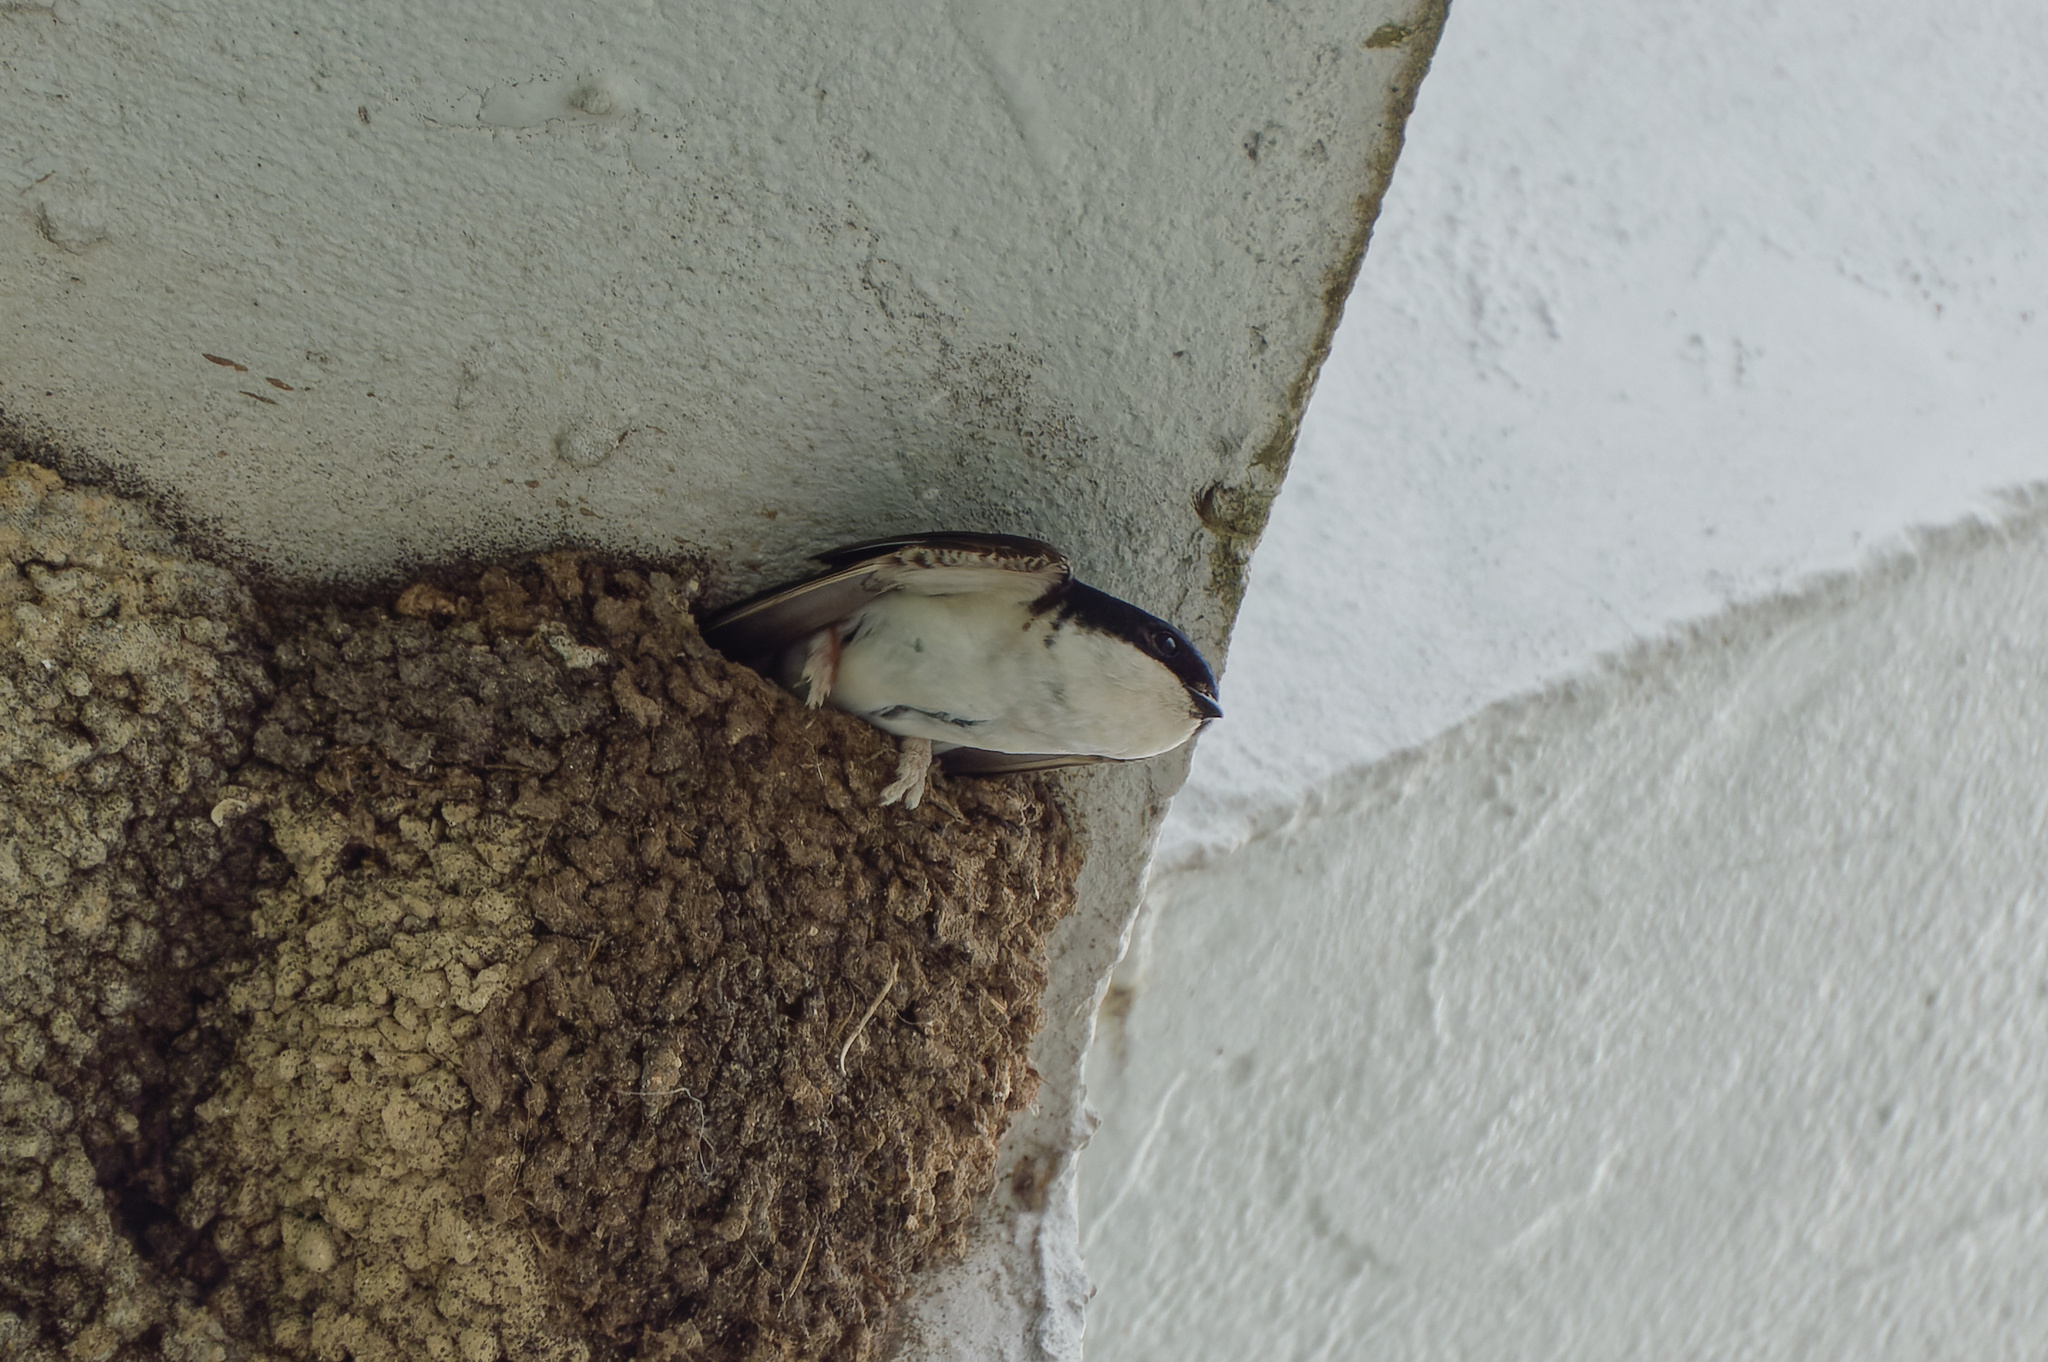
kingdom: Animalia
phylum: Chordata
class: Aves
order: Passeriformes
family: Hirundinidae
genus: Delichon
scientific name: Delichon urbicum
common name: Common house martin
